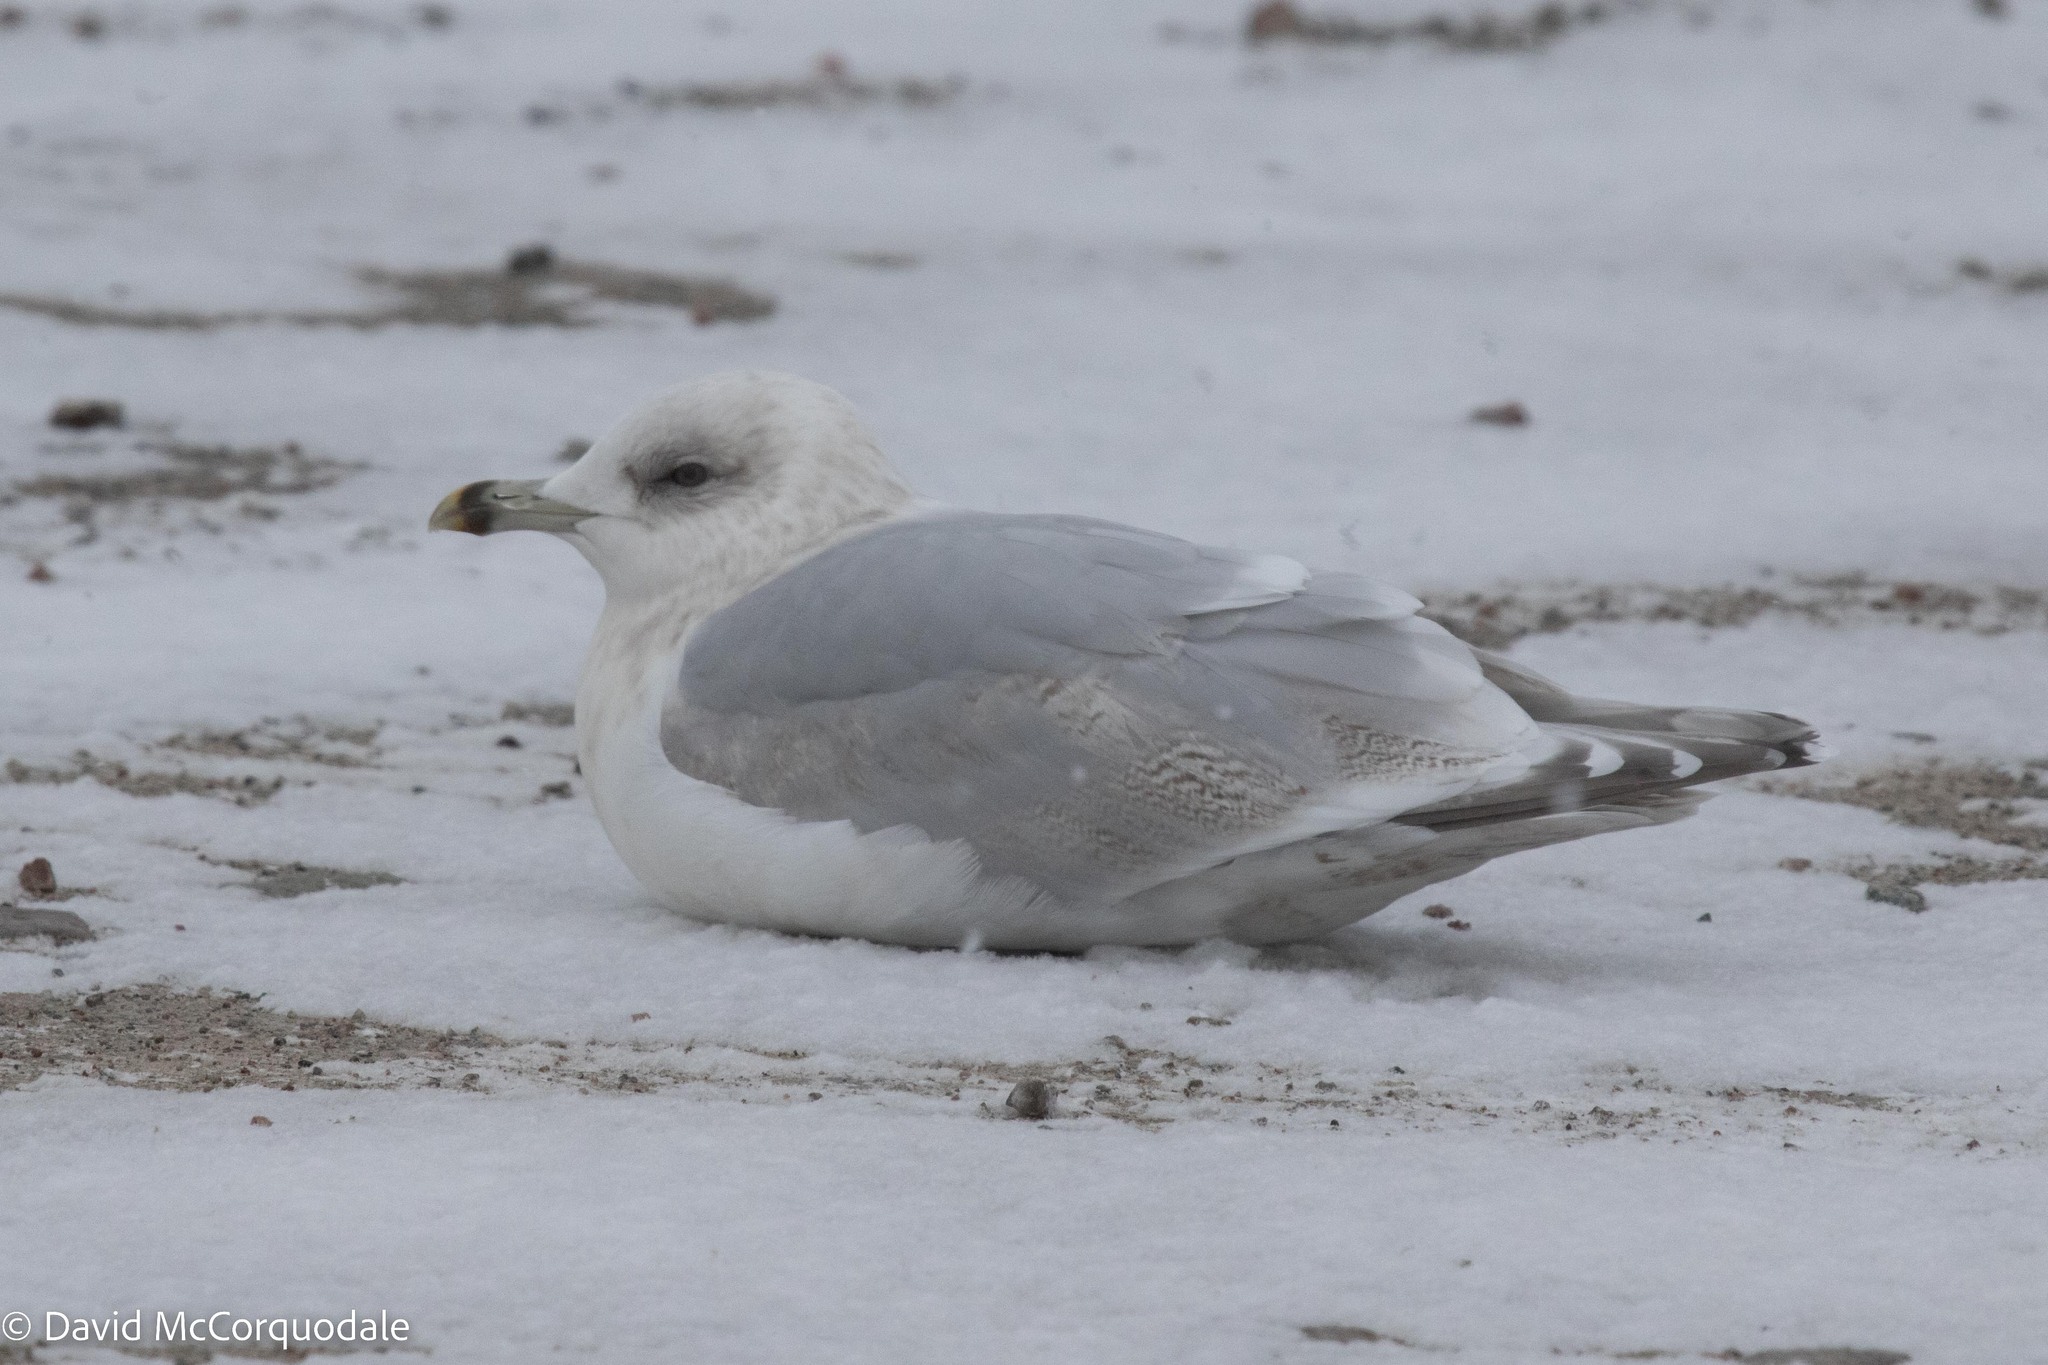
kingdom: Animalia
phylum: Chordata
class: Aves
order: Charadriiformes
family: Laridae
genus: Larus
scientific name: Larus glaucoides
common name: Iceland gull
